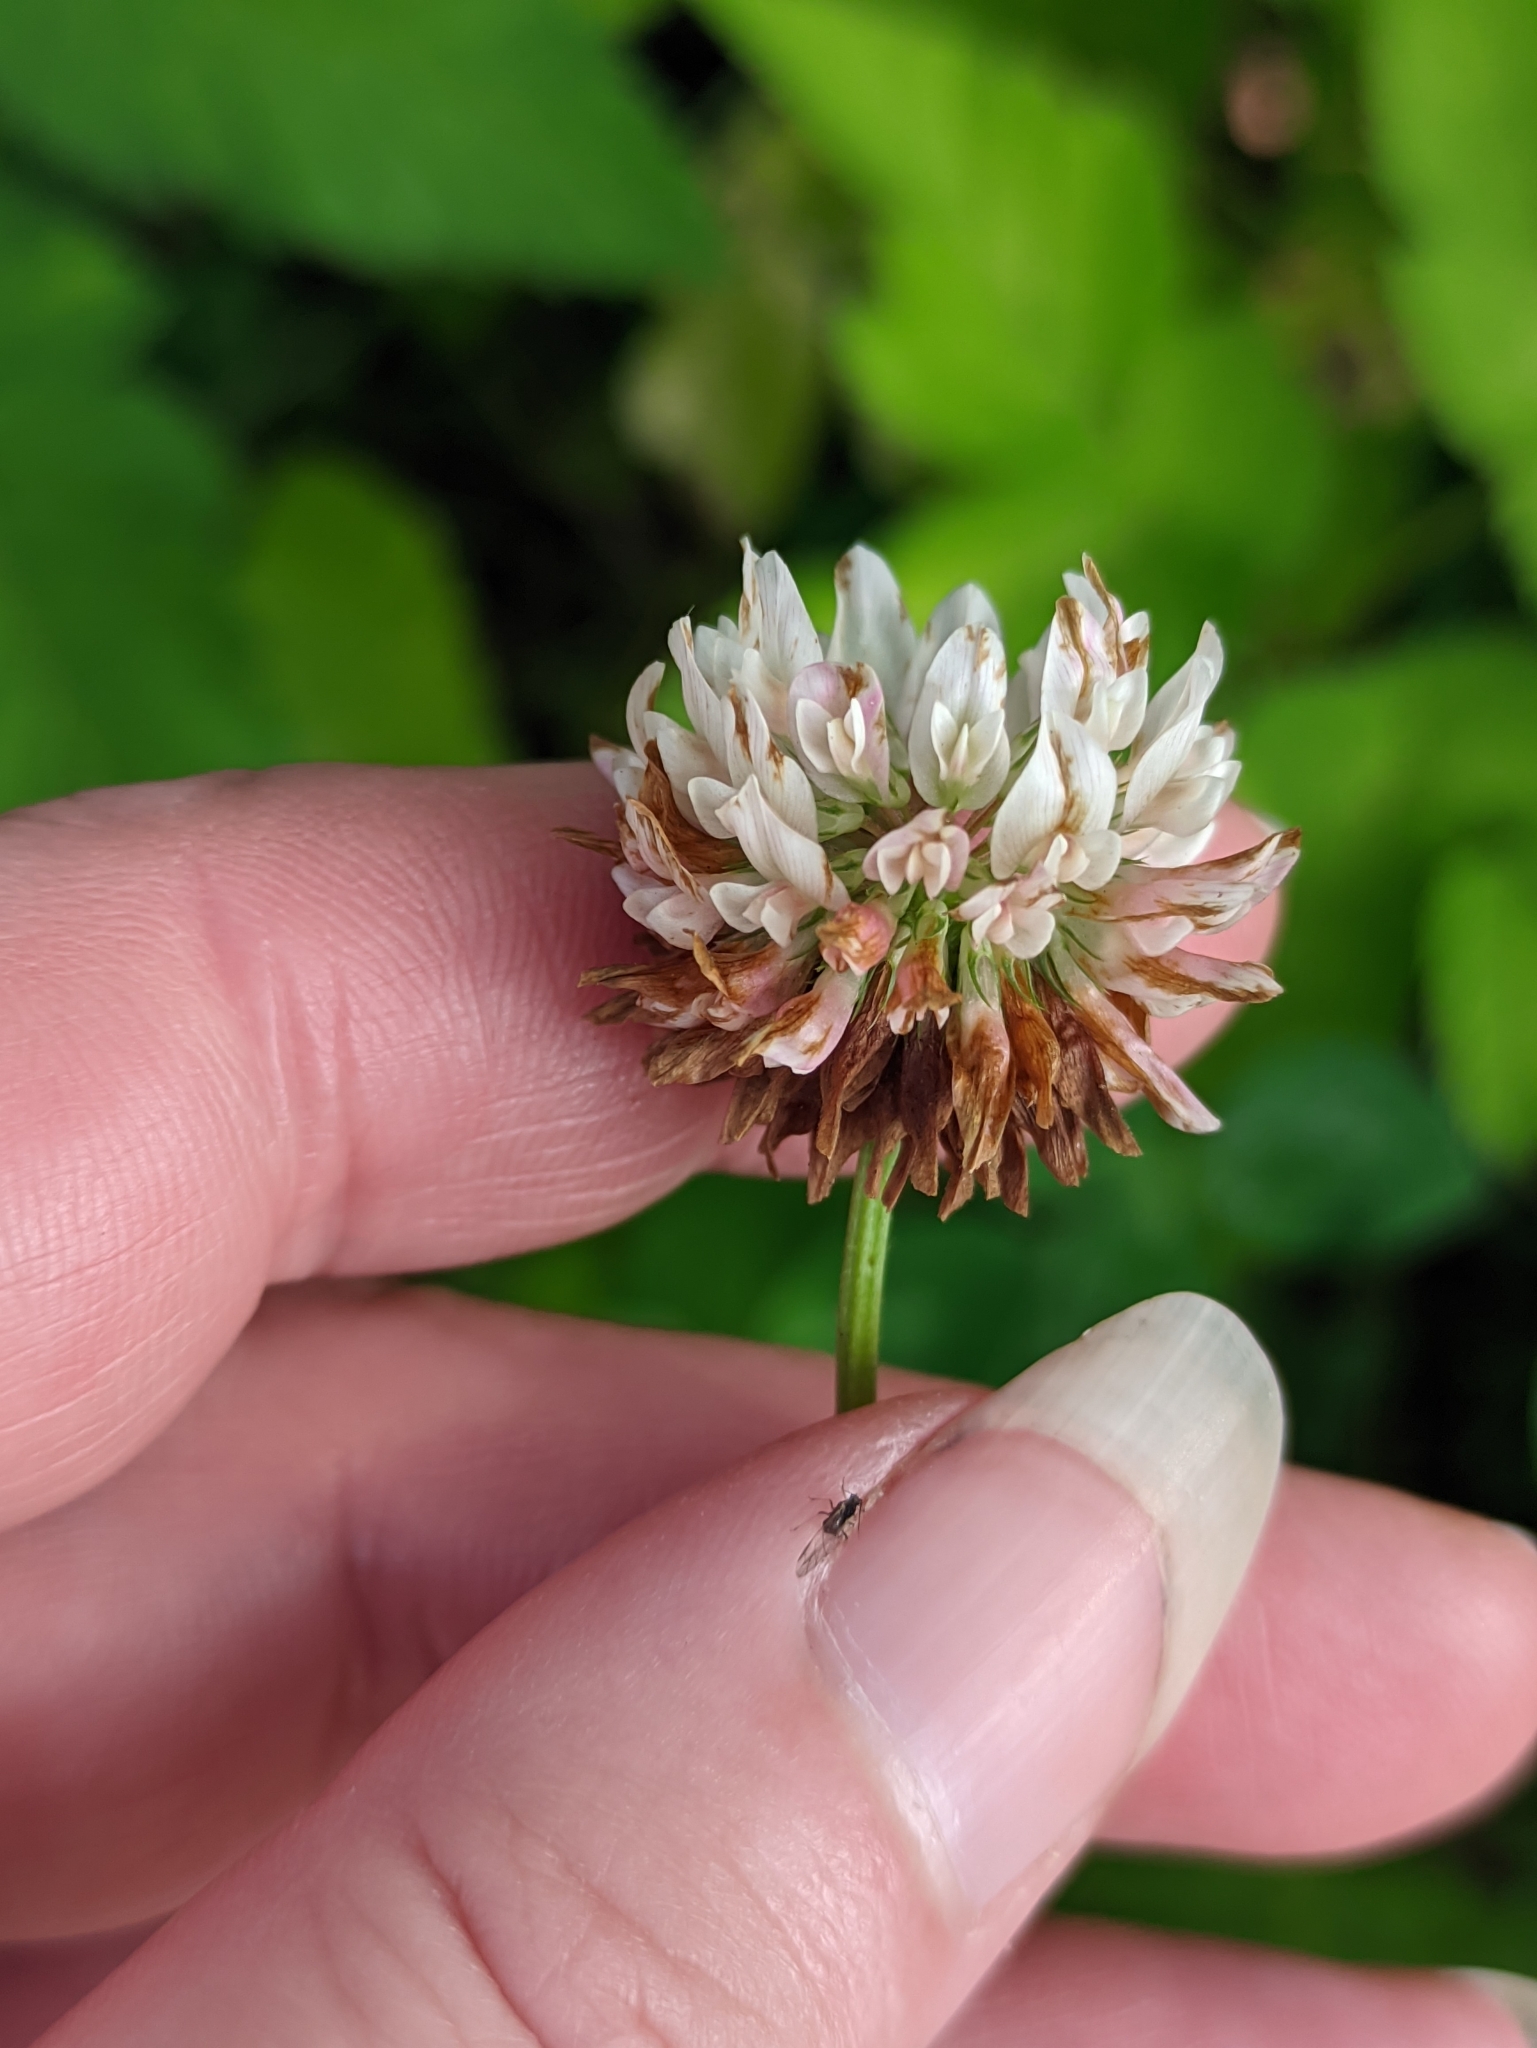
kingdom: Plantae
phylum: Tracheophyta
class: Magnoliopsida
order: Fabales
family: Fabaceae
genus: Trifolium
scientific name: Trifolium hybridum
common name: Alsike clover
